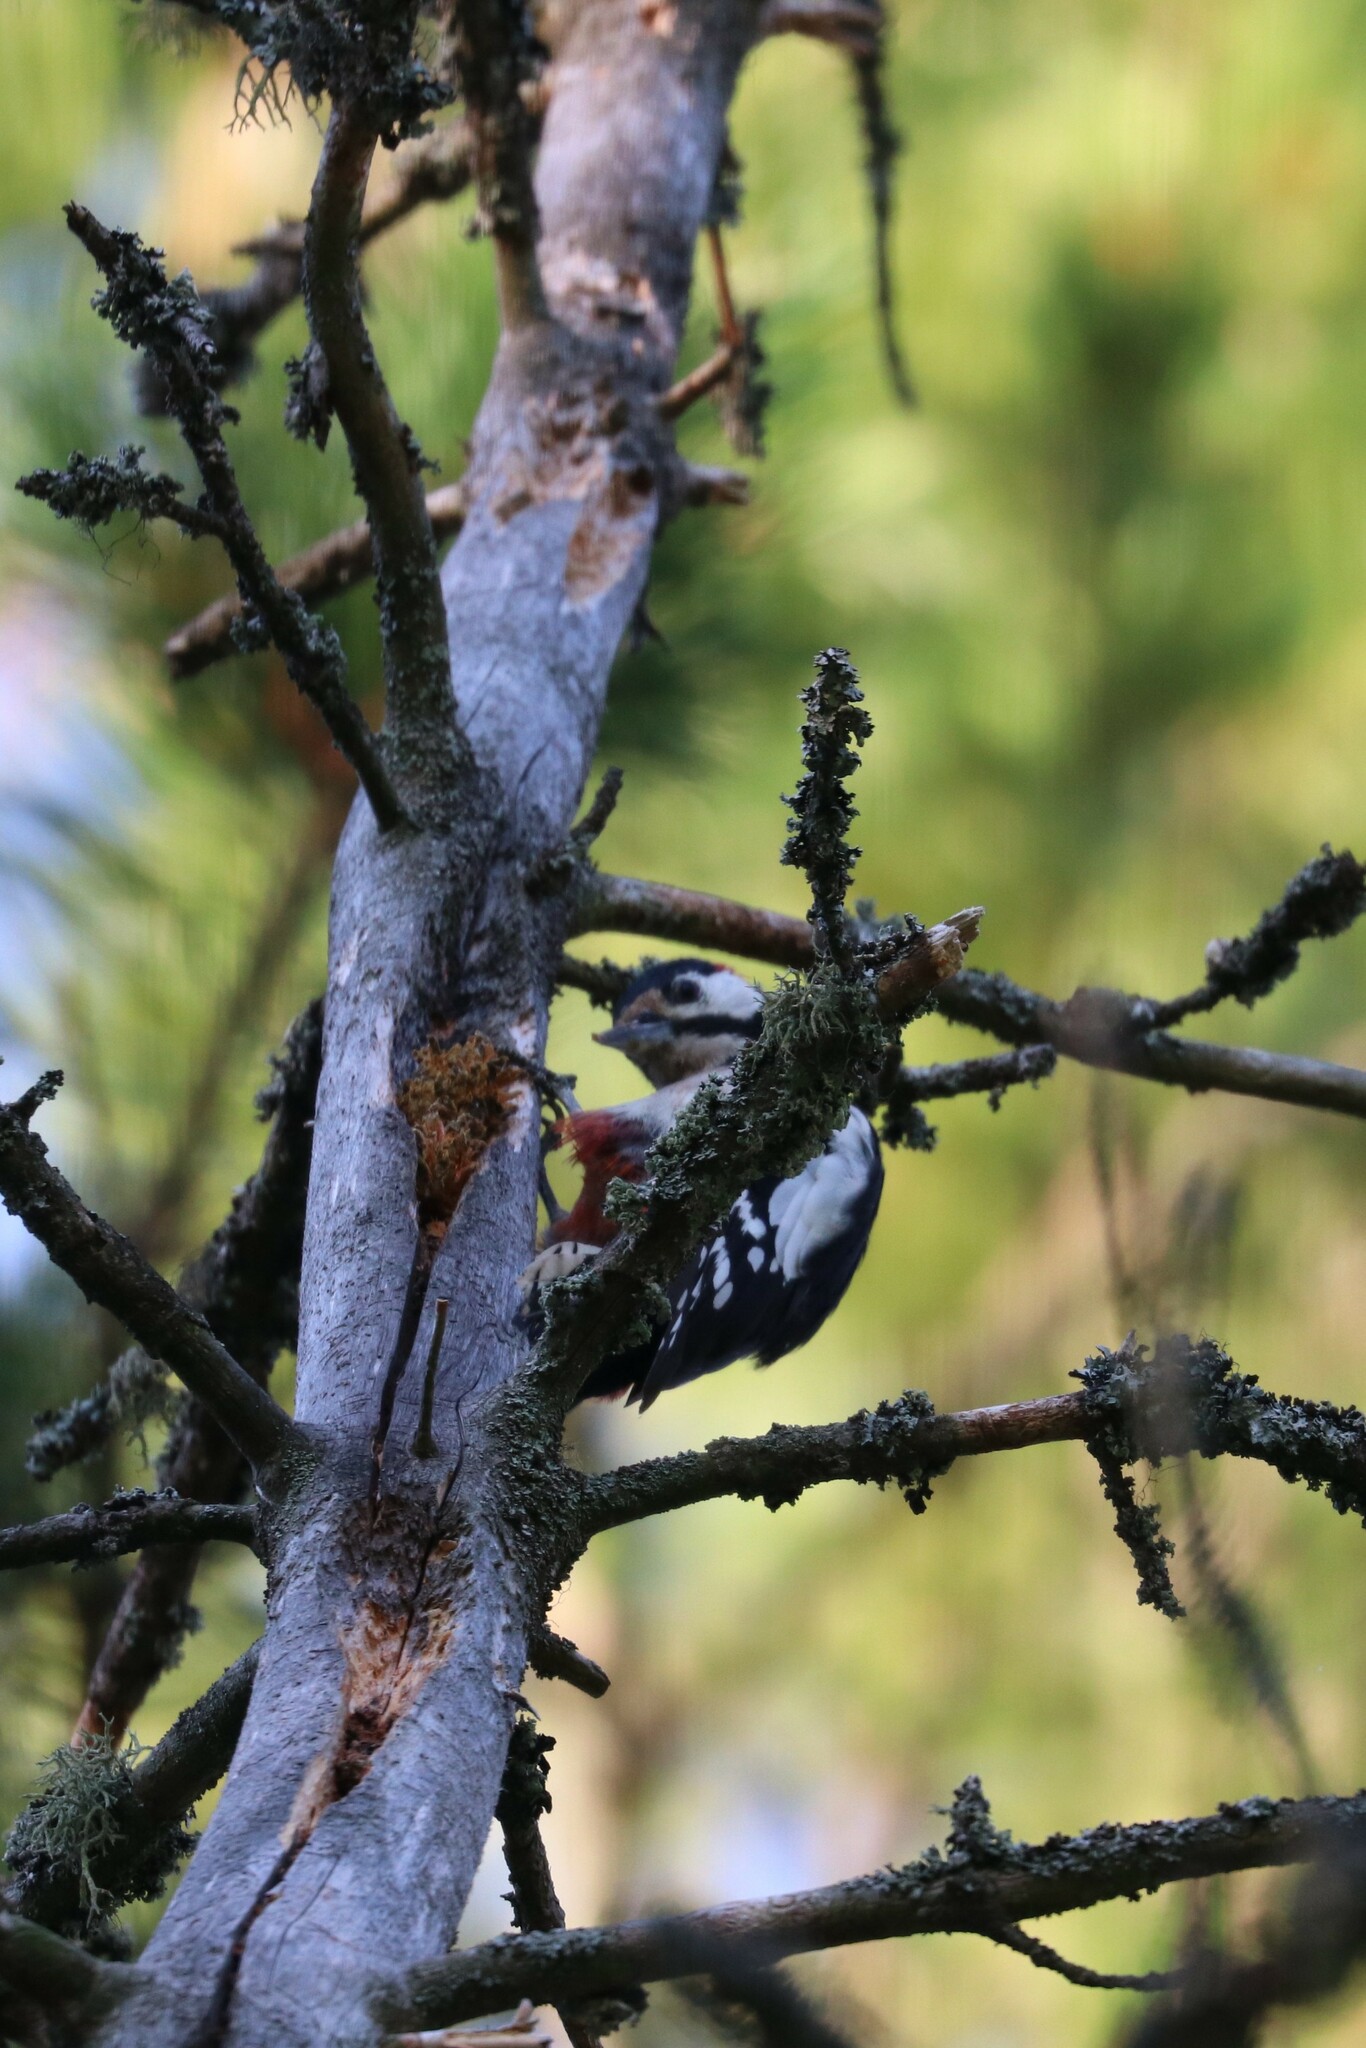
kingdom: Animalia
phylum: Chordata
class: Aves
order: Piciformes
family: Picidae
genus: Dendrocopos
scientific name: Dendrocopos major
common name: Great spotted woodpecker
